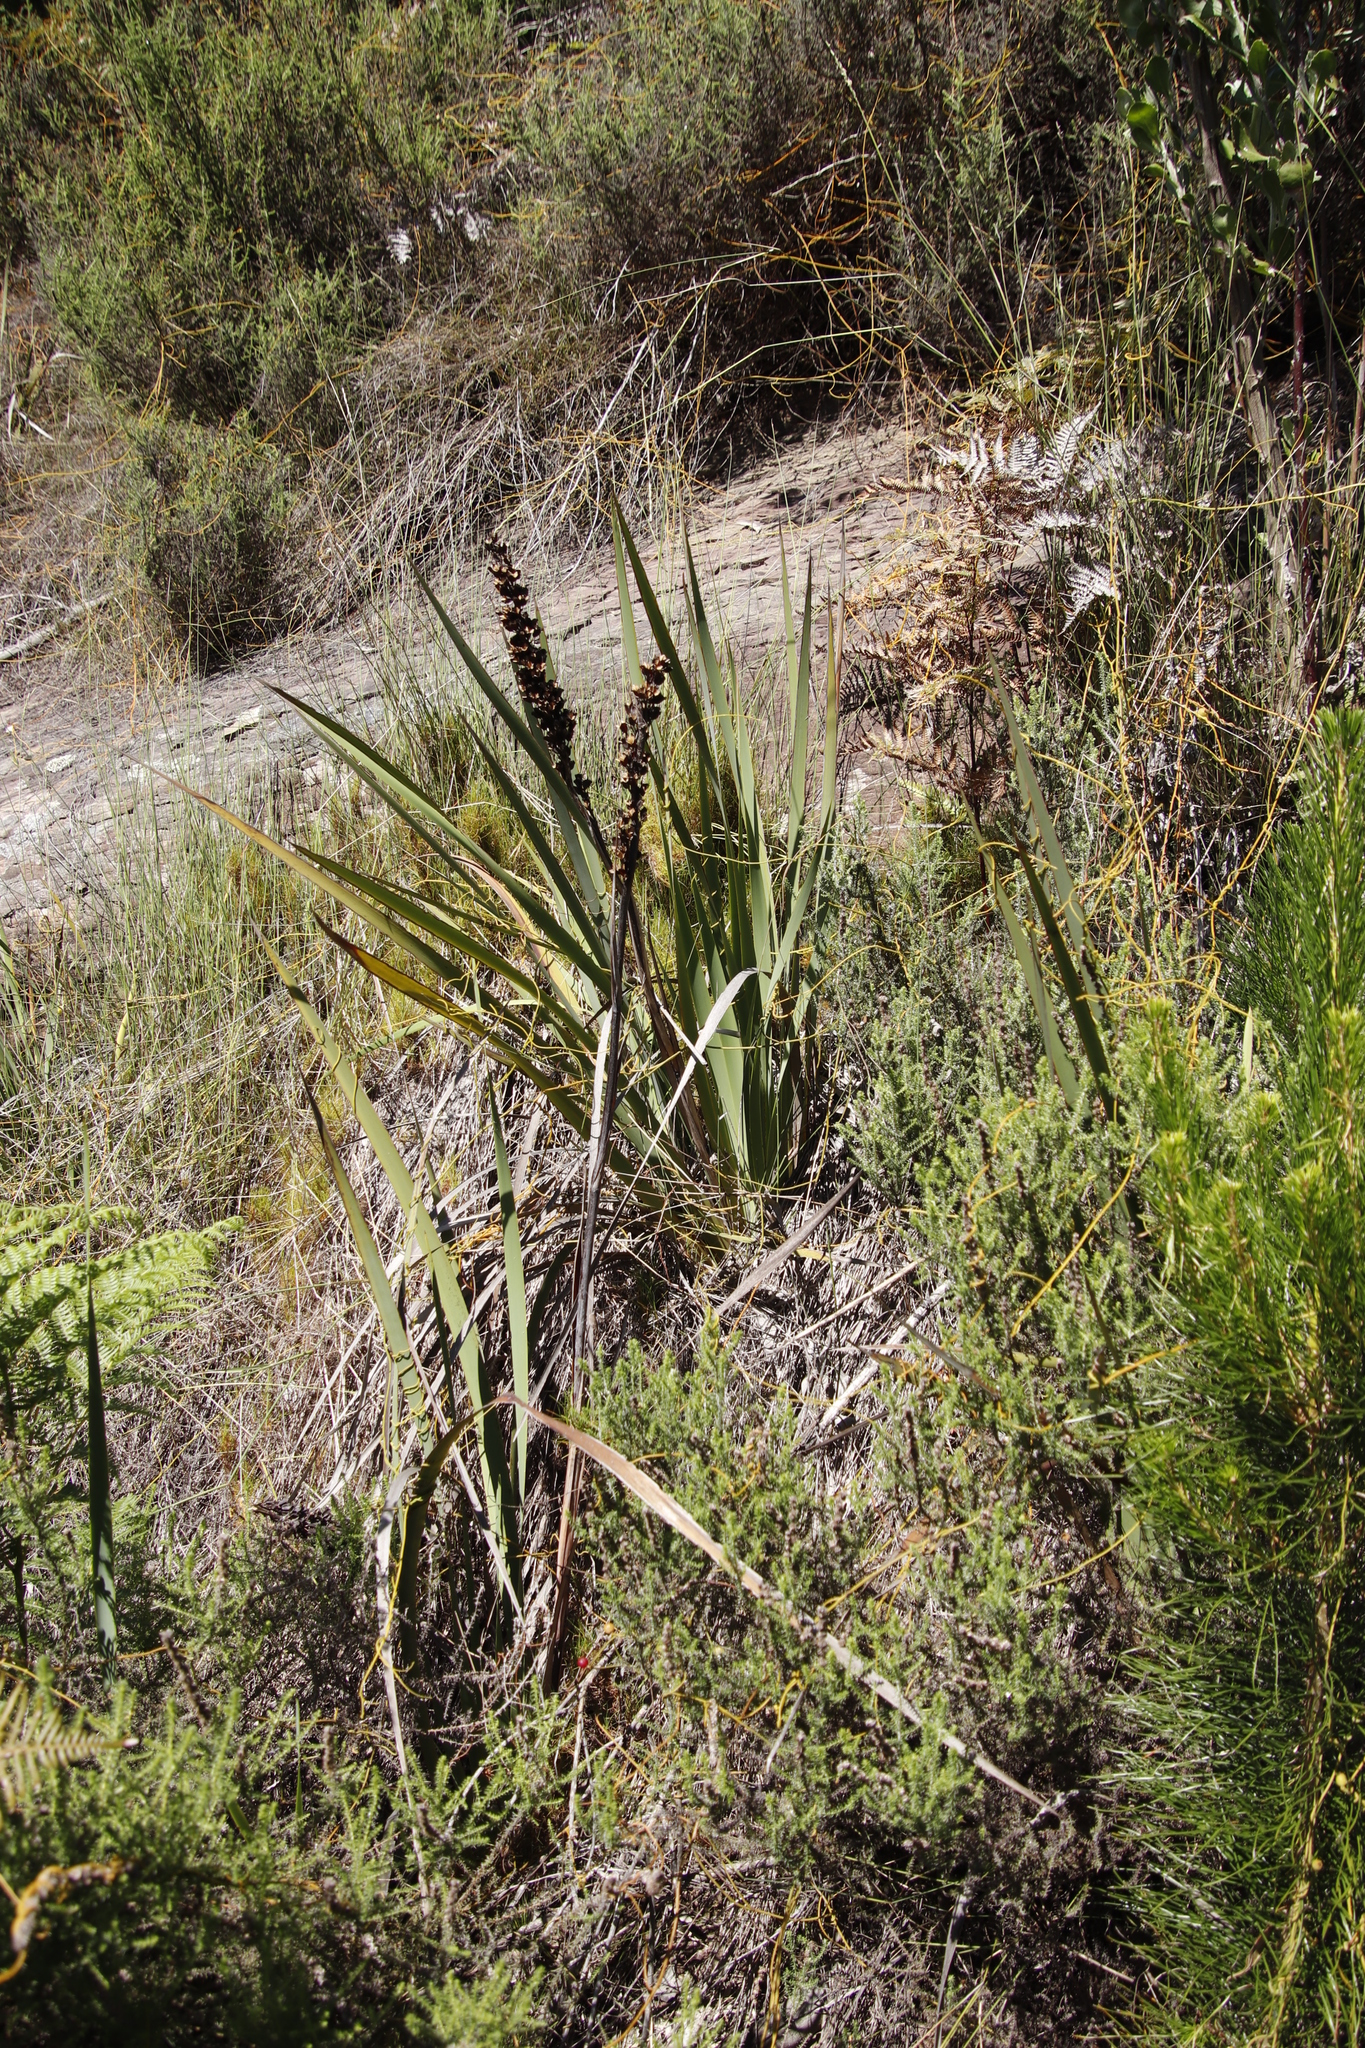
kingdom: Plantae
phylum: Tracheophyta
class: Liliopsida
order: Asparagales
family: Iridaceae
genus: Aristea
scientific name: Aristea capitata
